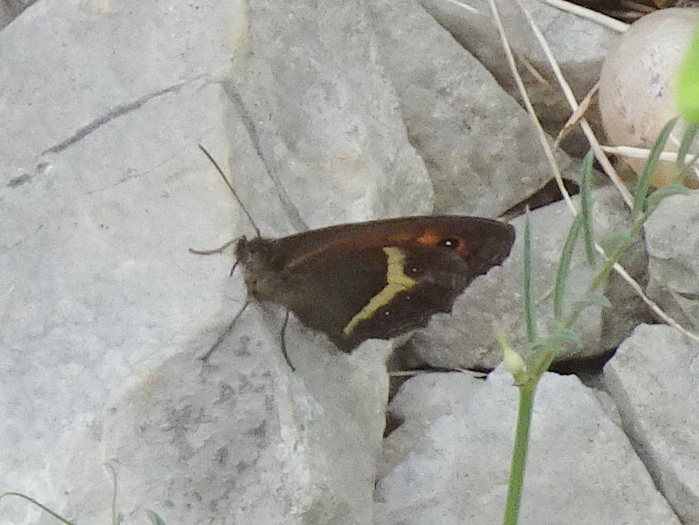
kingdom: Animalia
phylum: Arthropoda
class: Insecta
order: Lepidoptera
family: Nymphalidae
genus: Pyronia
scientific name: Pyronia bathseba
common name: Spanish gatekeeper
